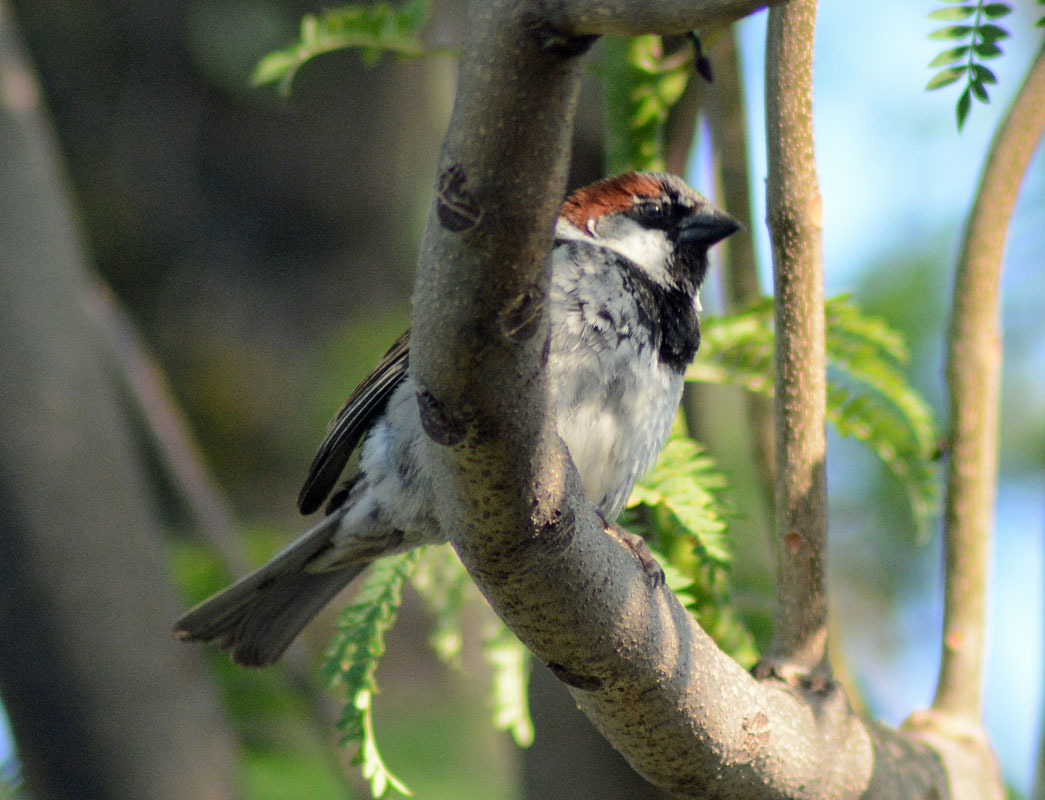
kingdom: Animalia
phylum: Chordata
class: Aves
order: Passeriformes
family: Passeridae
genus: Passer
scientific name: Passer domesticus
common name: House sparrow
